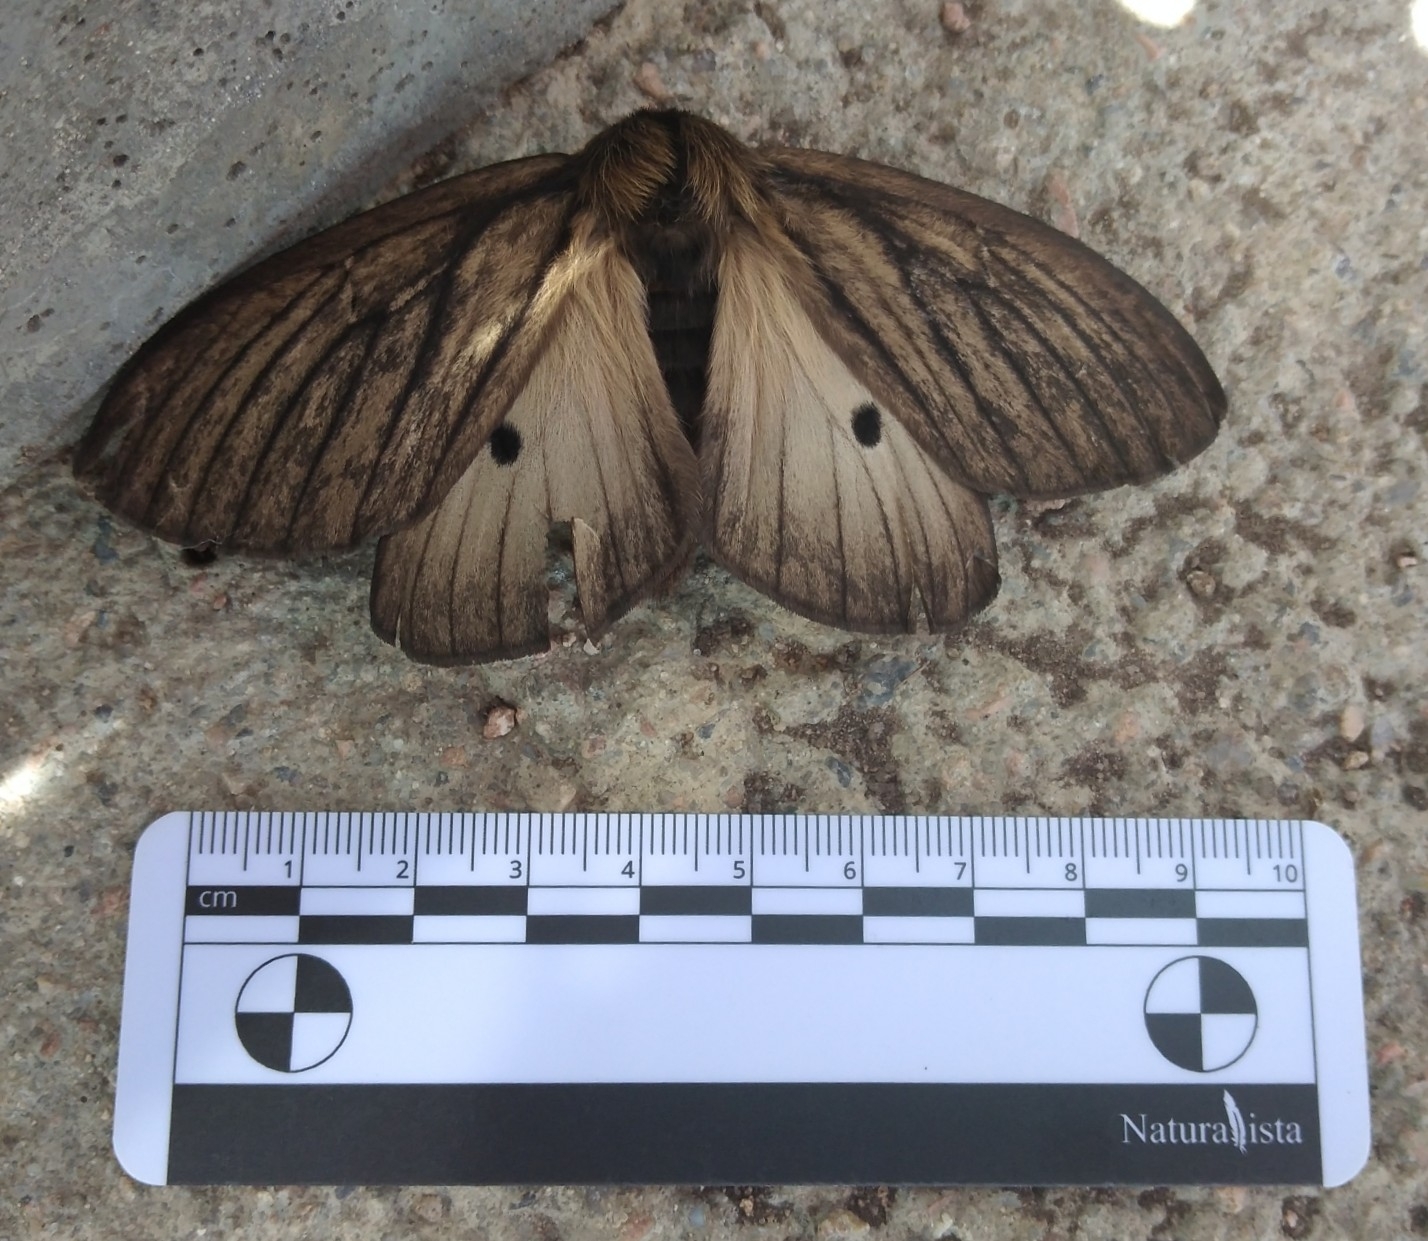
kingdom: Animalia
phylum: Arthropoda
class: Insecta
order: Lepidoptera
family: Saturniidae
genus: Eudyaria
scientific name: Eudyaria zeta
